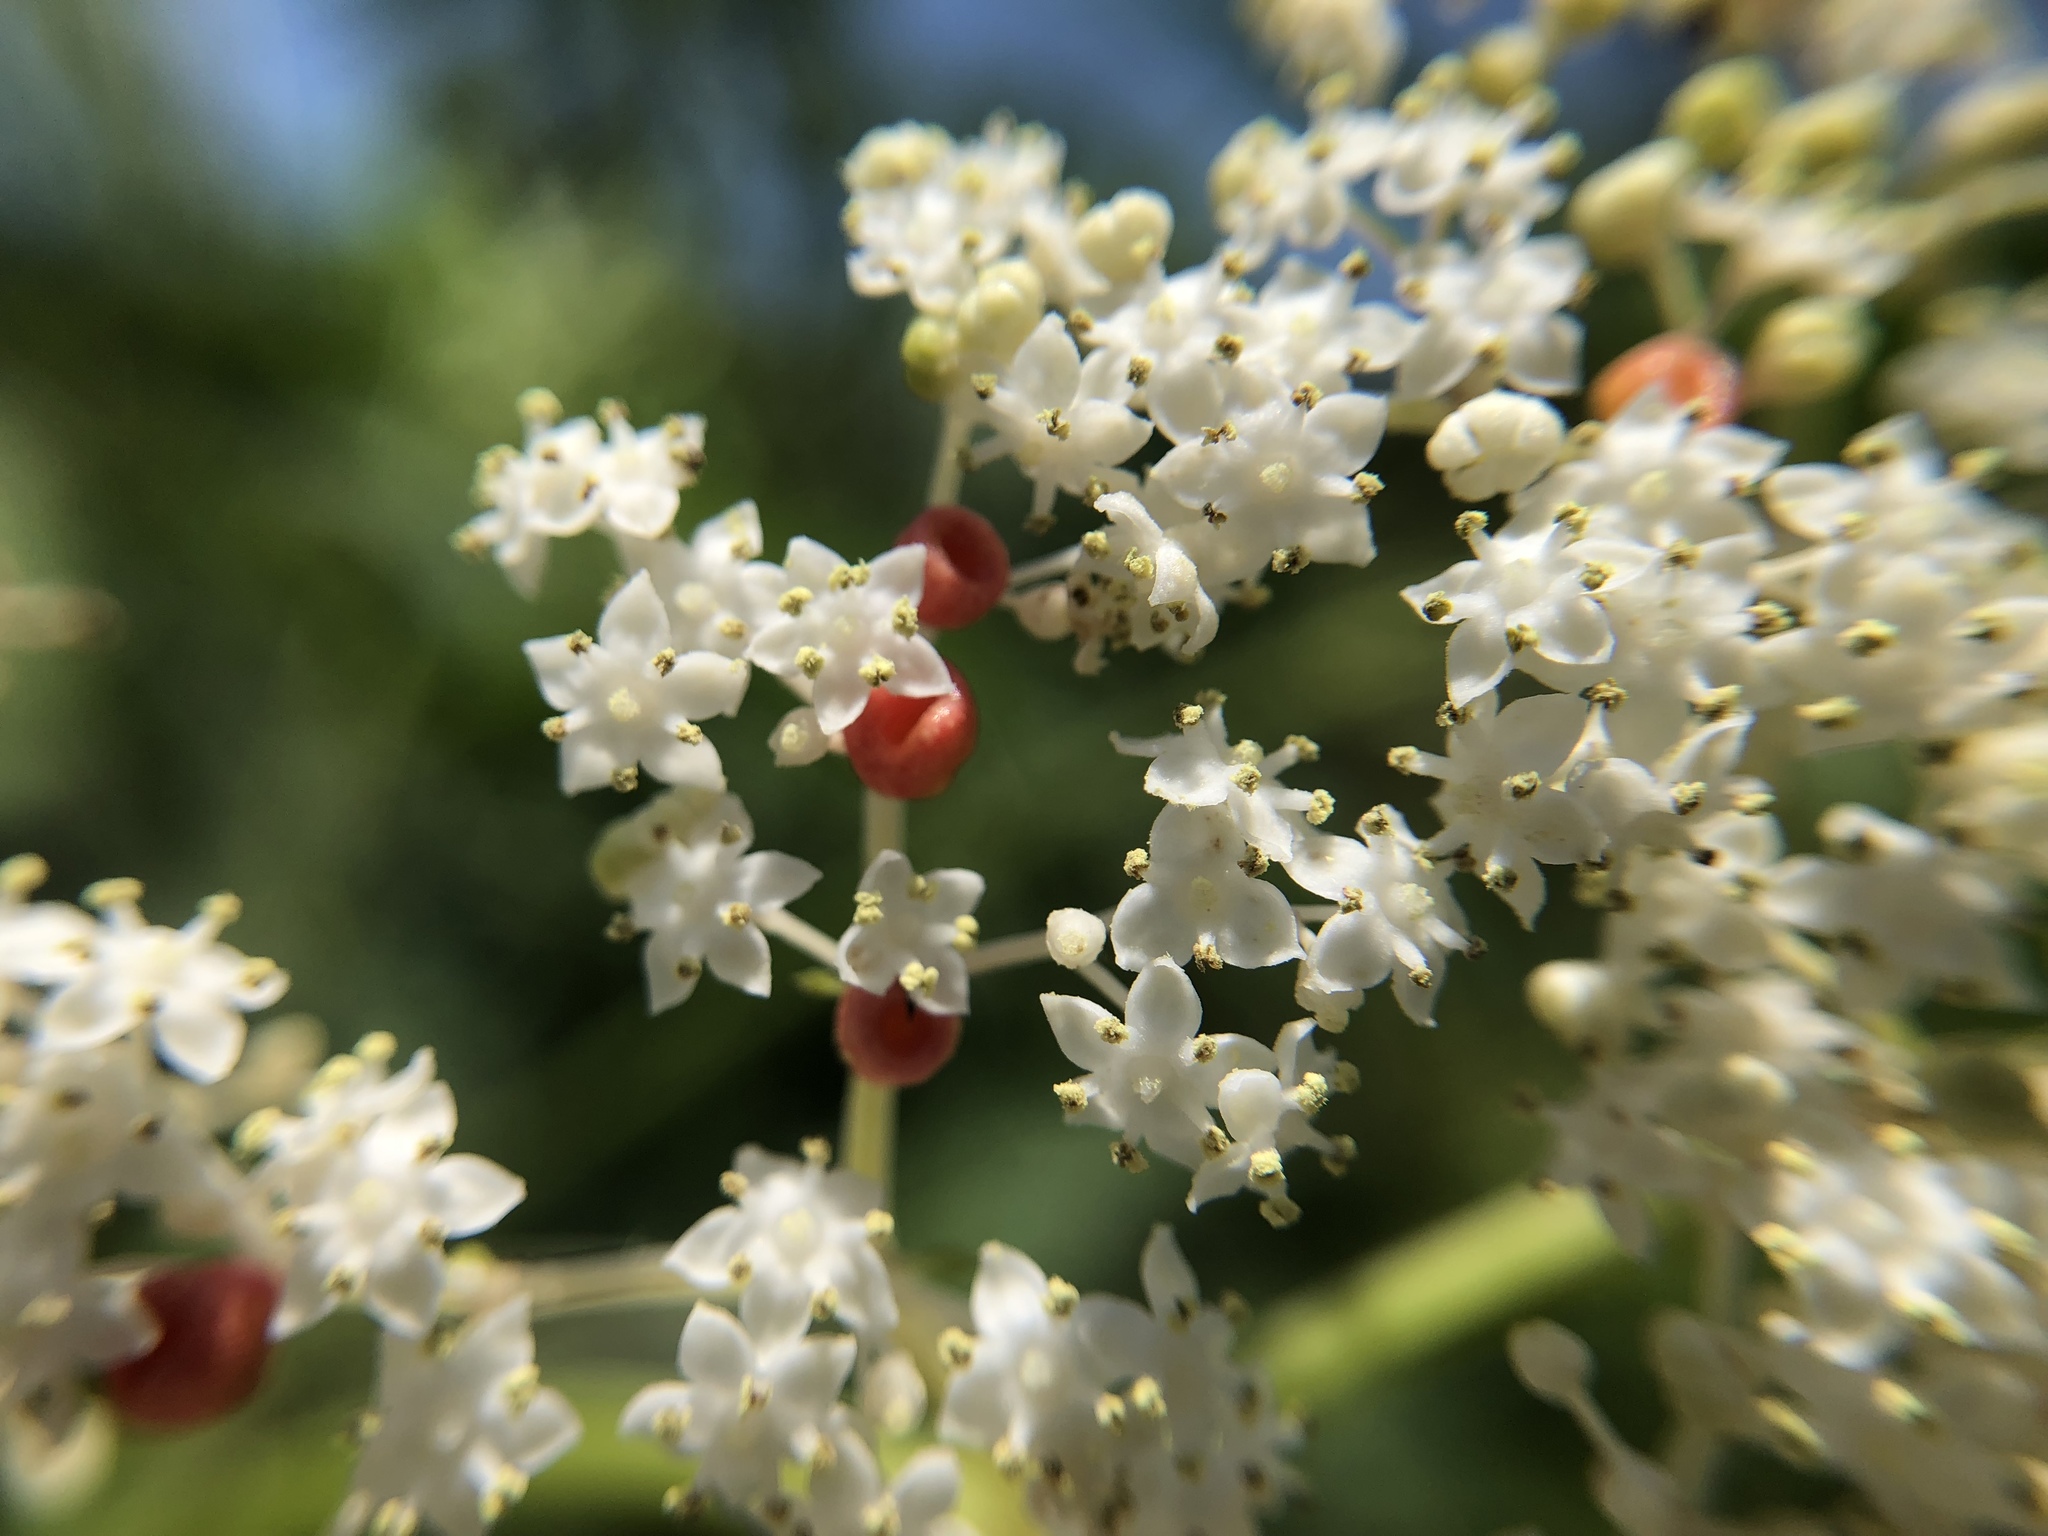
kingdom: Plantae
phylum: Tracheophyta
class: Magnoliopsida
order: Dipsacales
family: Viburnaceae
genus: Sambucus
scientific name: Sambucus javanica
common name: Chinese elder
